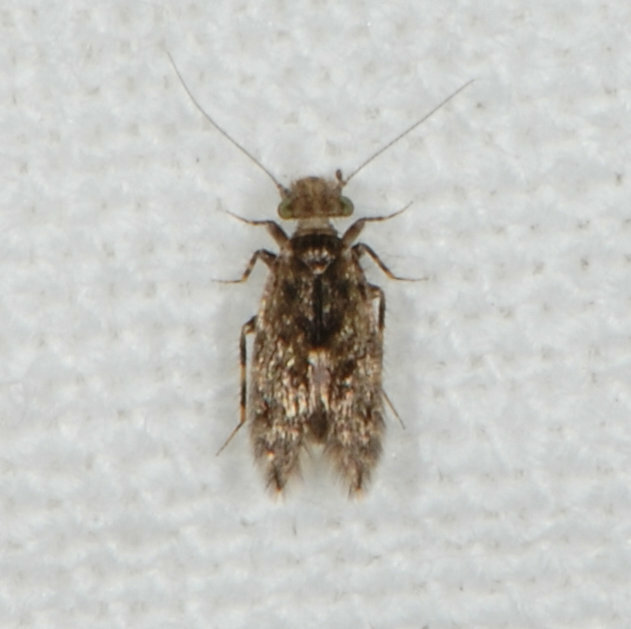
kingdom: Animalia
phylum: Arthropoda
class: Insecta
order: Psocodea
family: Lepidopsocidae
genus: Echmepteryx
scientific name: Echmepteryx hageni
